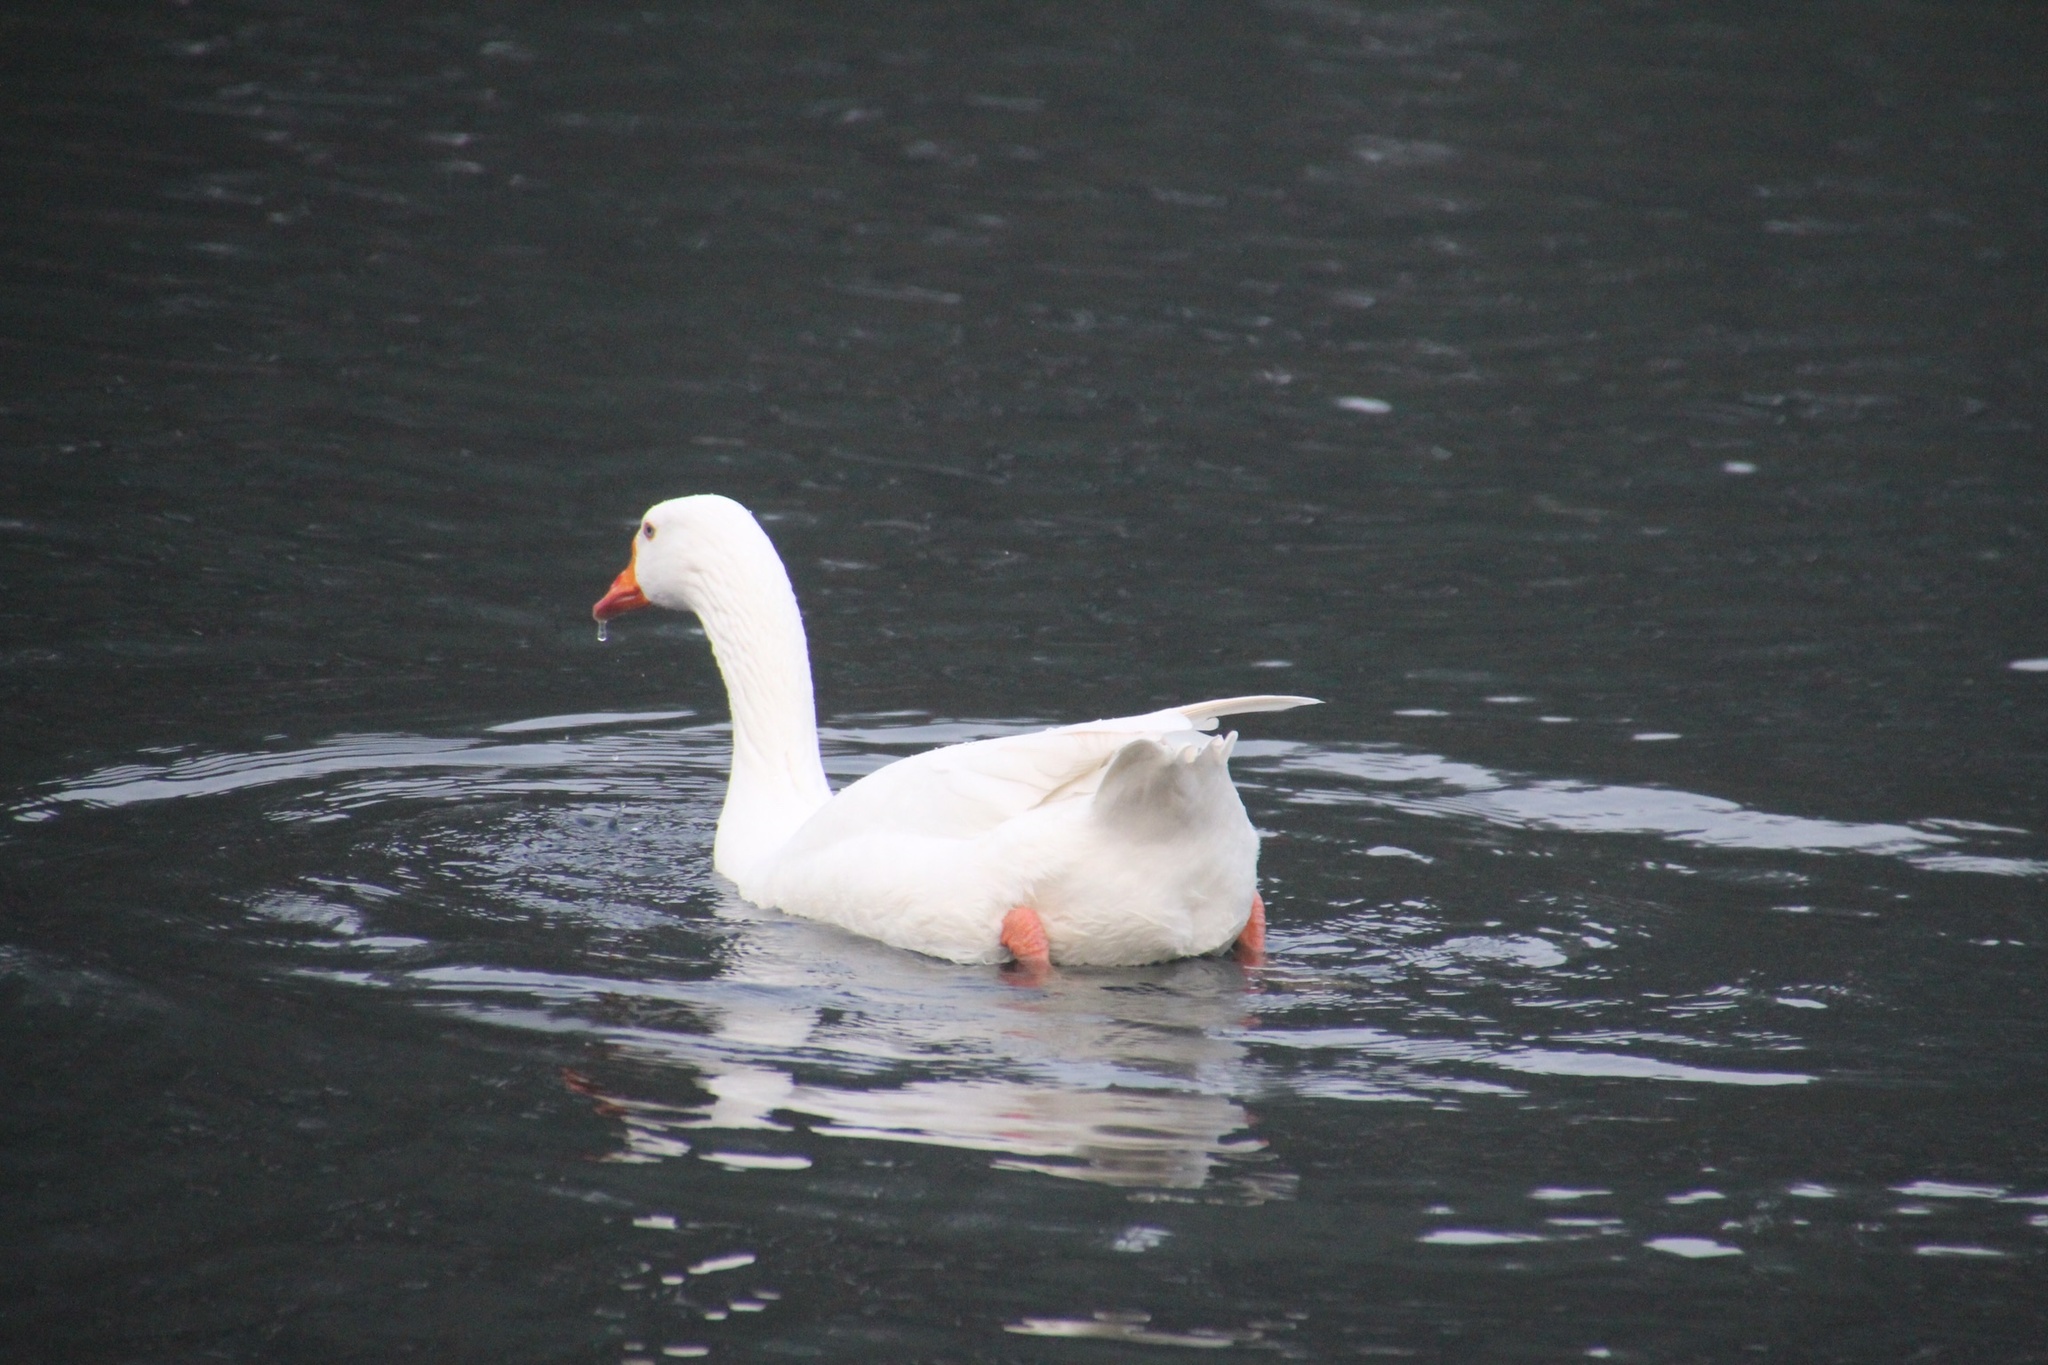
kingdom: Animalia
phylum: Chordata
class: Aves
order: Anseriformes
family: Anatidae
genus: Anser
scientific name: Anser
